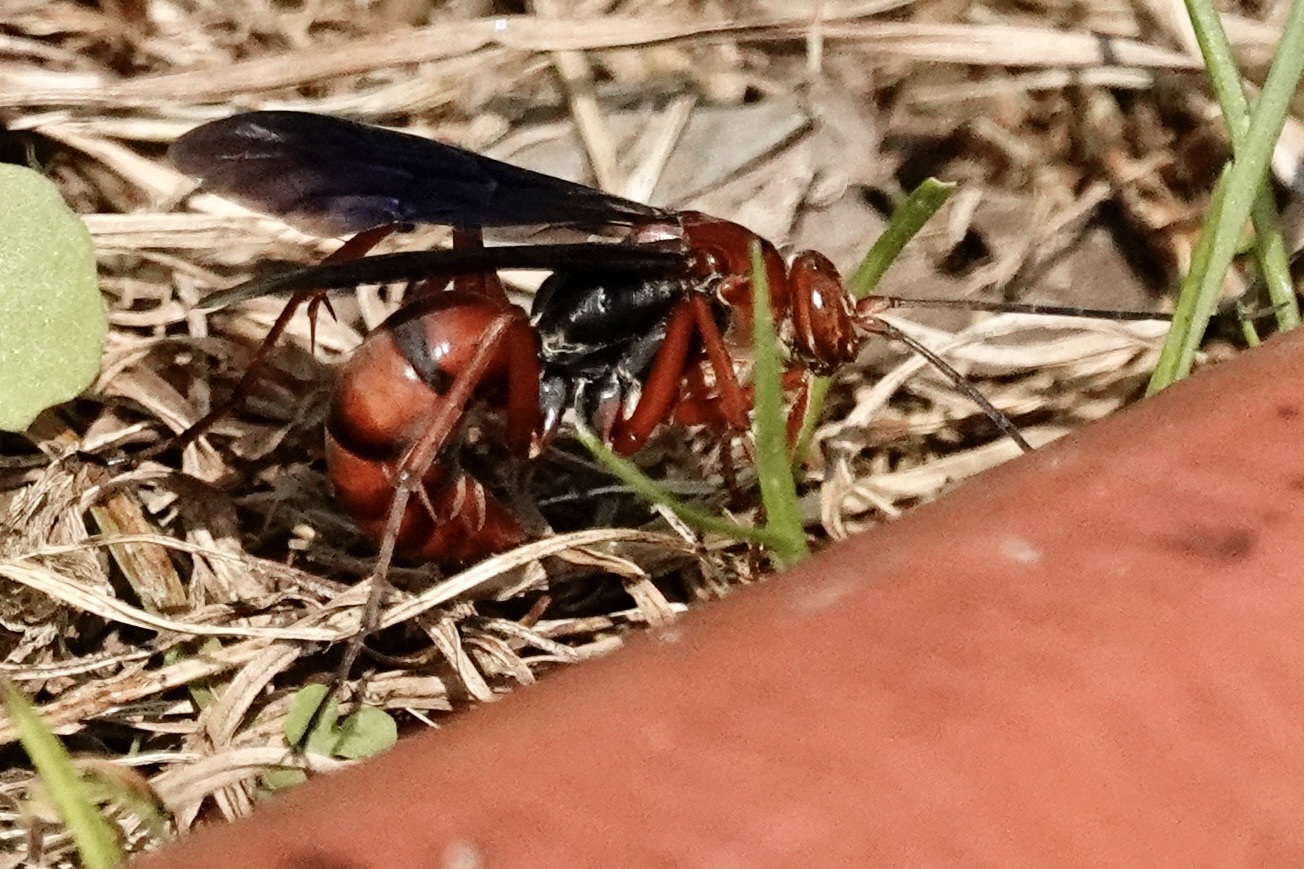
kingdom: Animalia
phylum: Arthropoda
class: Insecta
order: Hymenoptera
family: Pompilidae
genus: Tachypompilus
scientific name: Tachypompilus ferrugineus
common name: Rusty spider wasp
